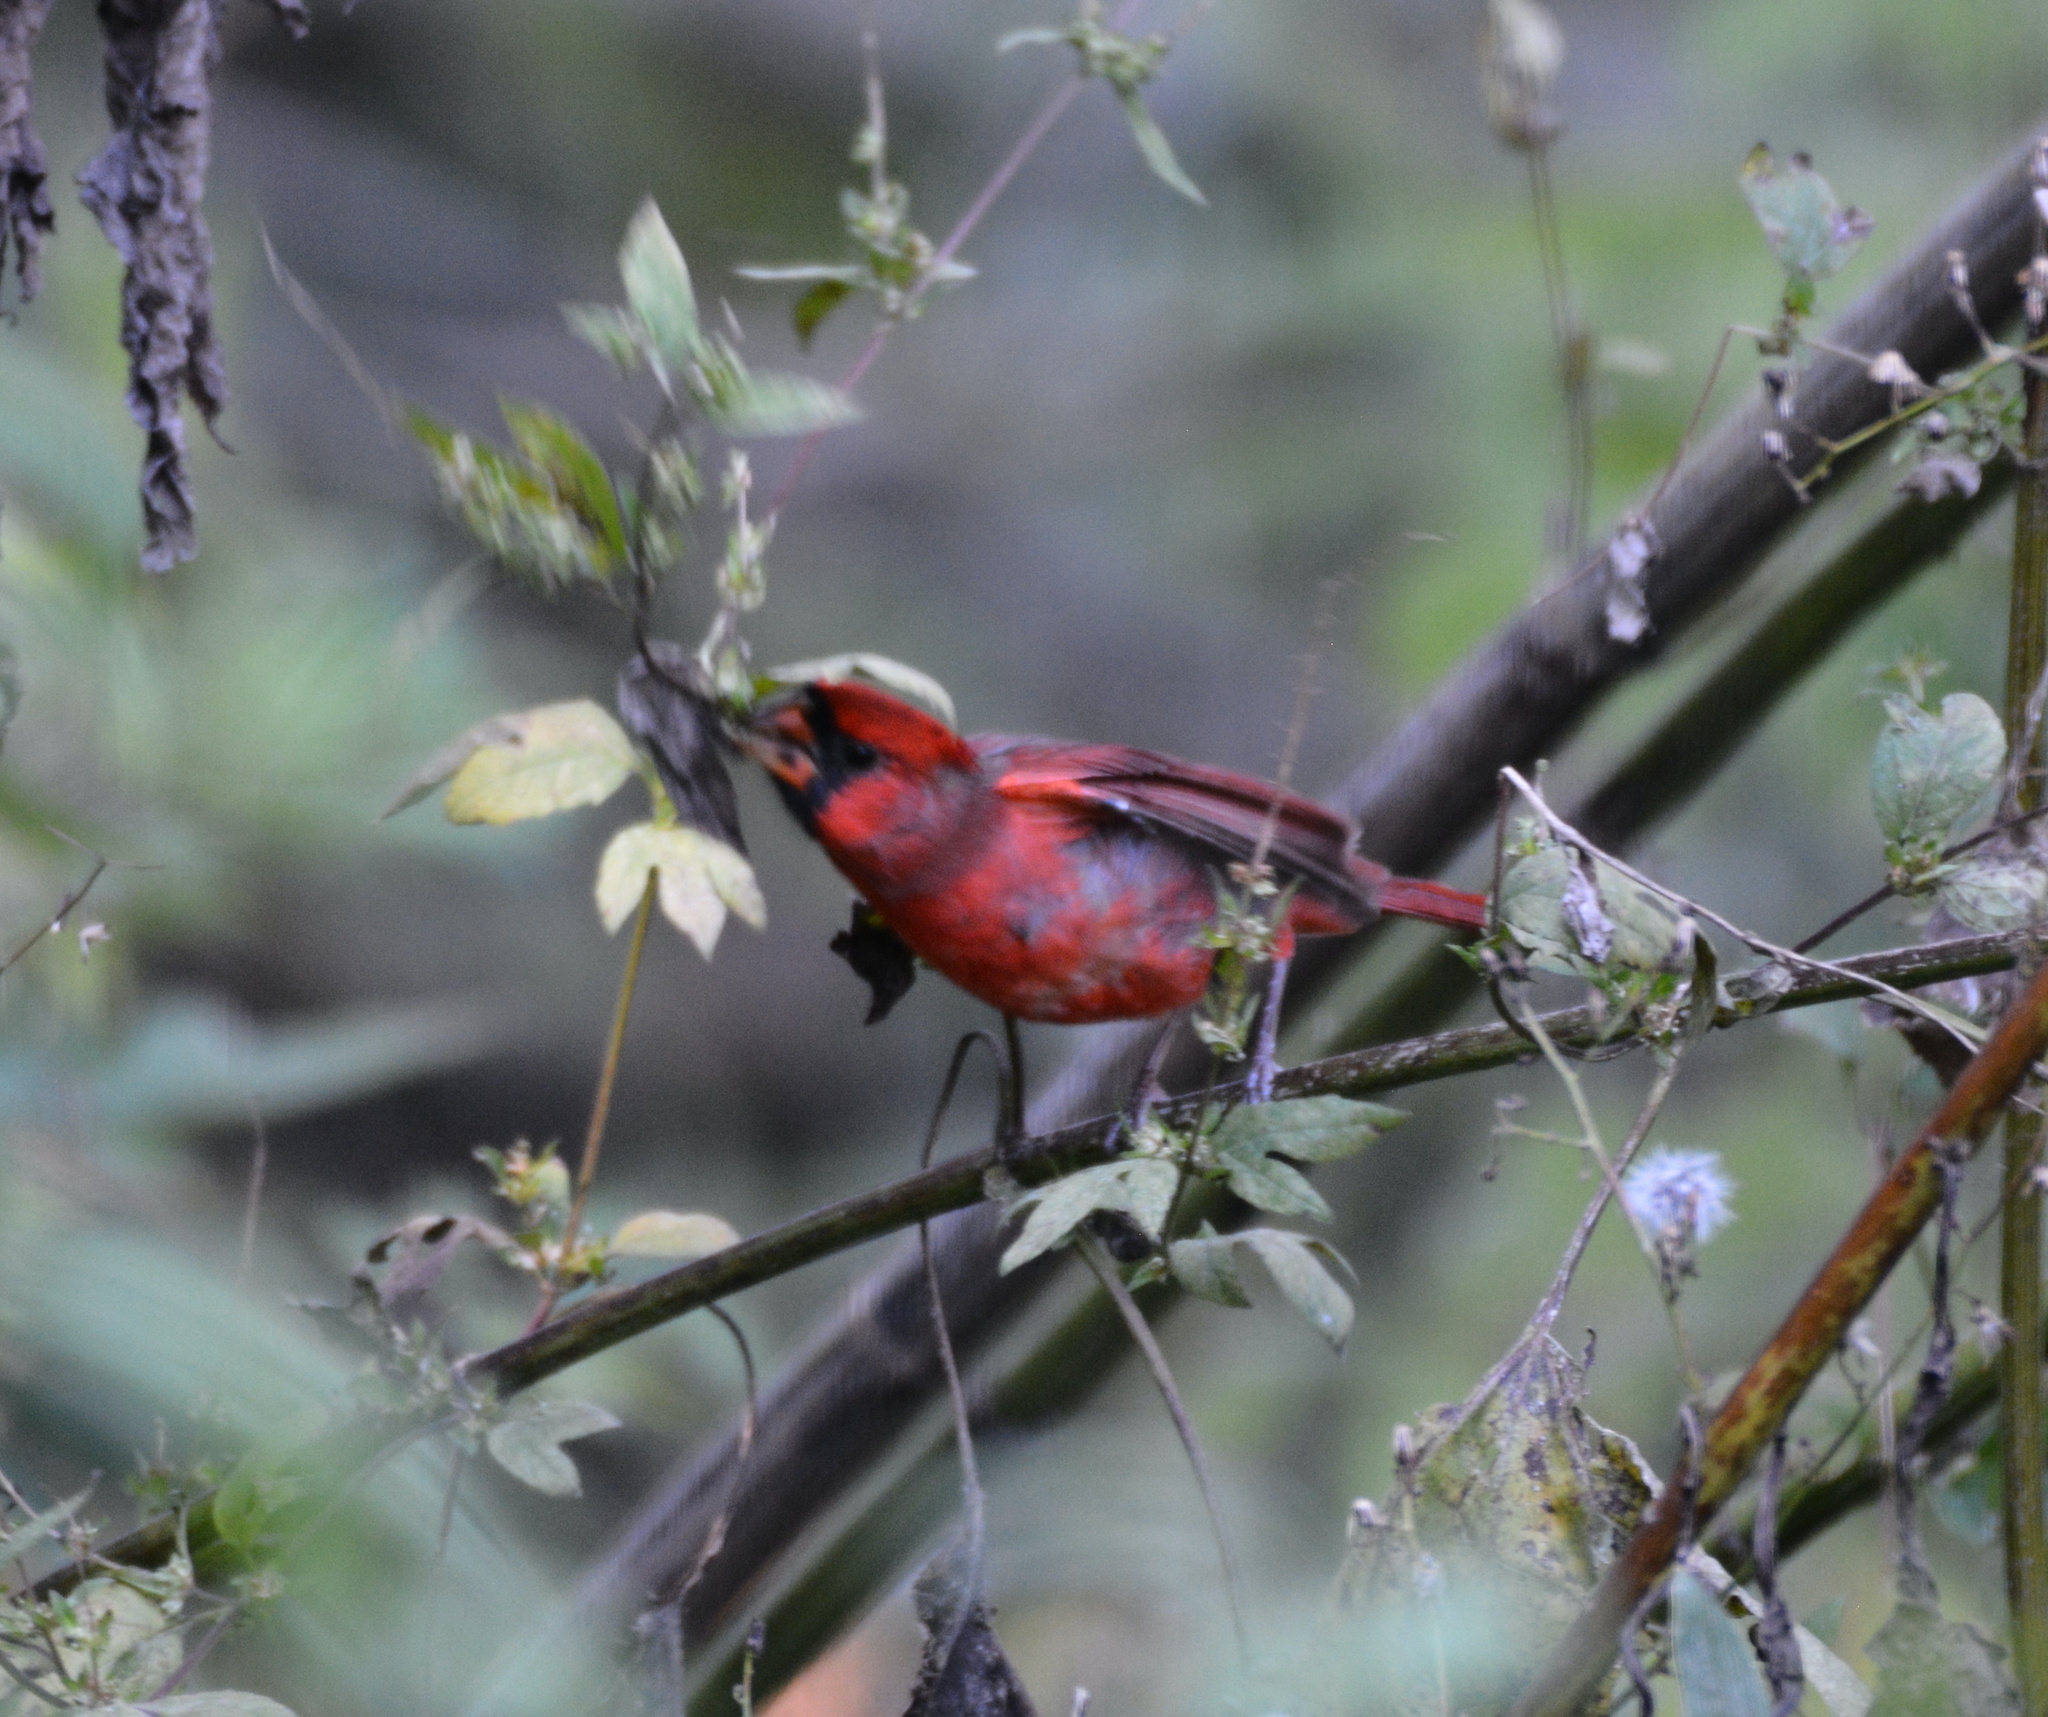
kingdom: Animalia
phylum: Chordata
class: Aves
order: Passeriformes
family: Cardinalidae
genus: Cardinalis
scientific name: Cardinalis cardinalis
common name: Northern cardinal
